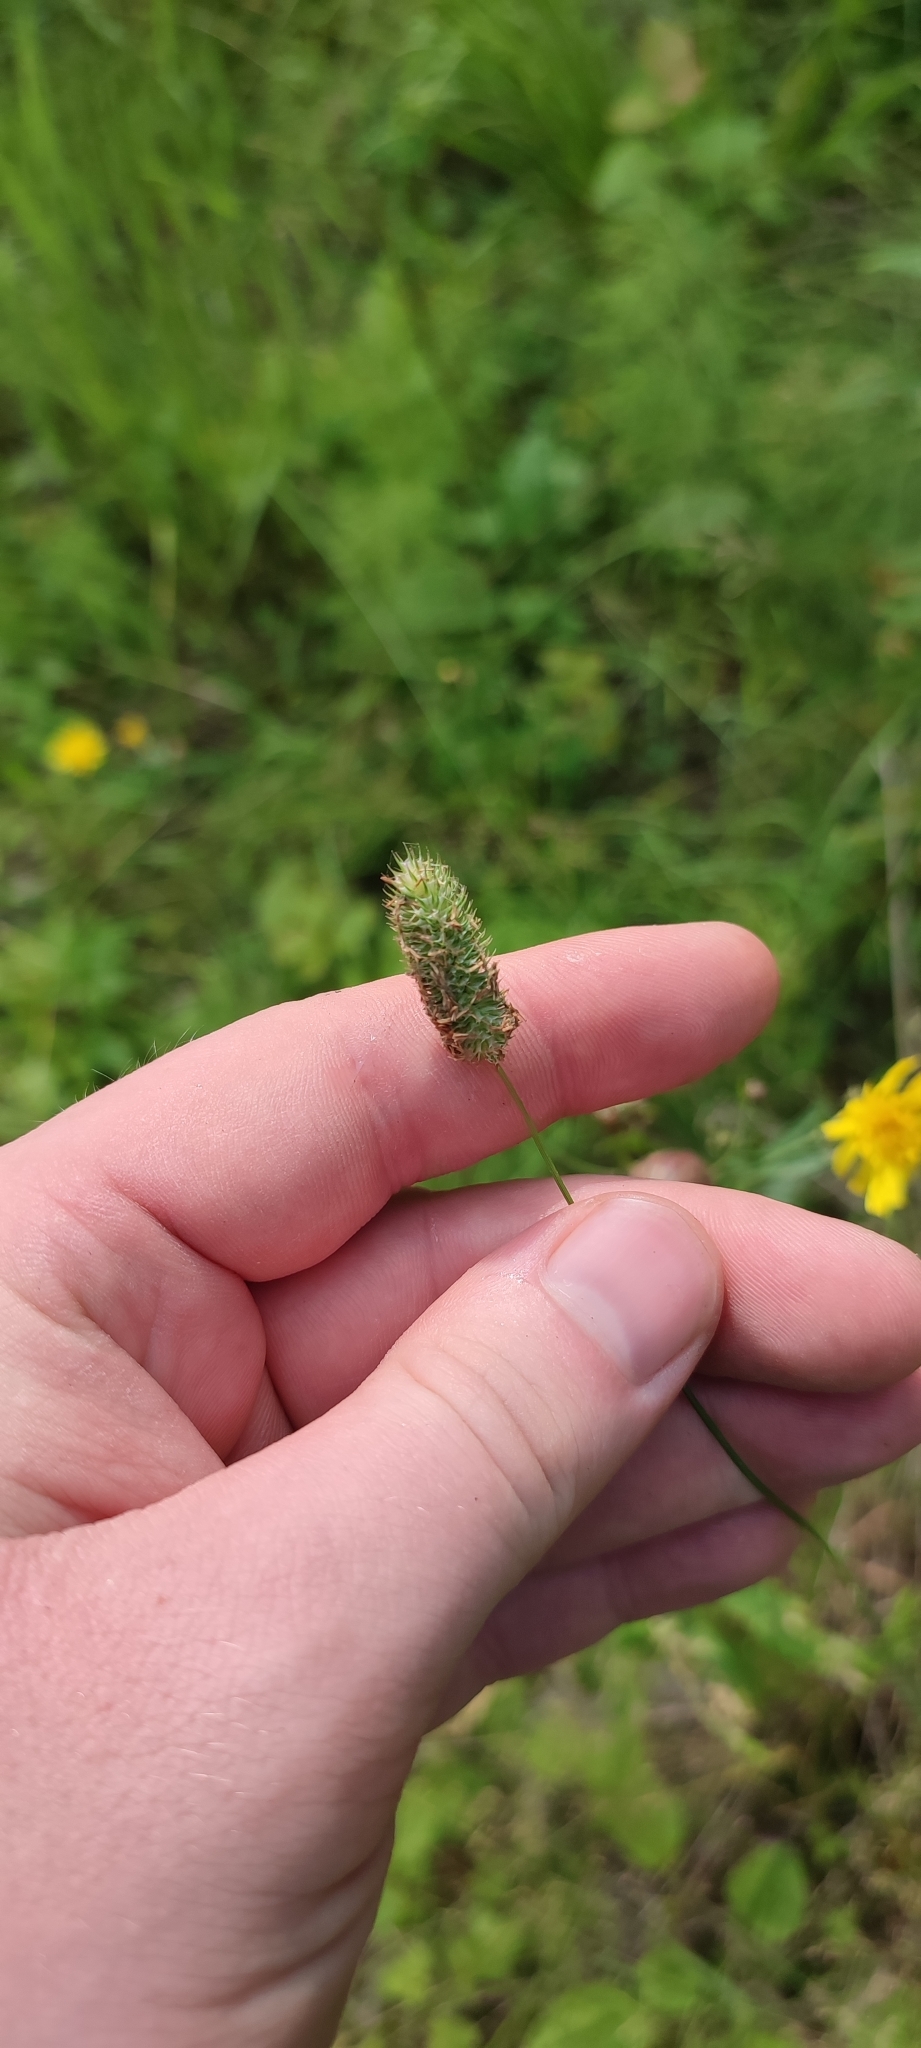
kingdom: Plantae
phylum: Tracheophyta
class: Liliopsida
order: Poales
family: Poaceae
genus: Phleum
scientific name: Phleum pratense
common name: Timothy grass
